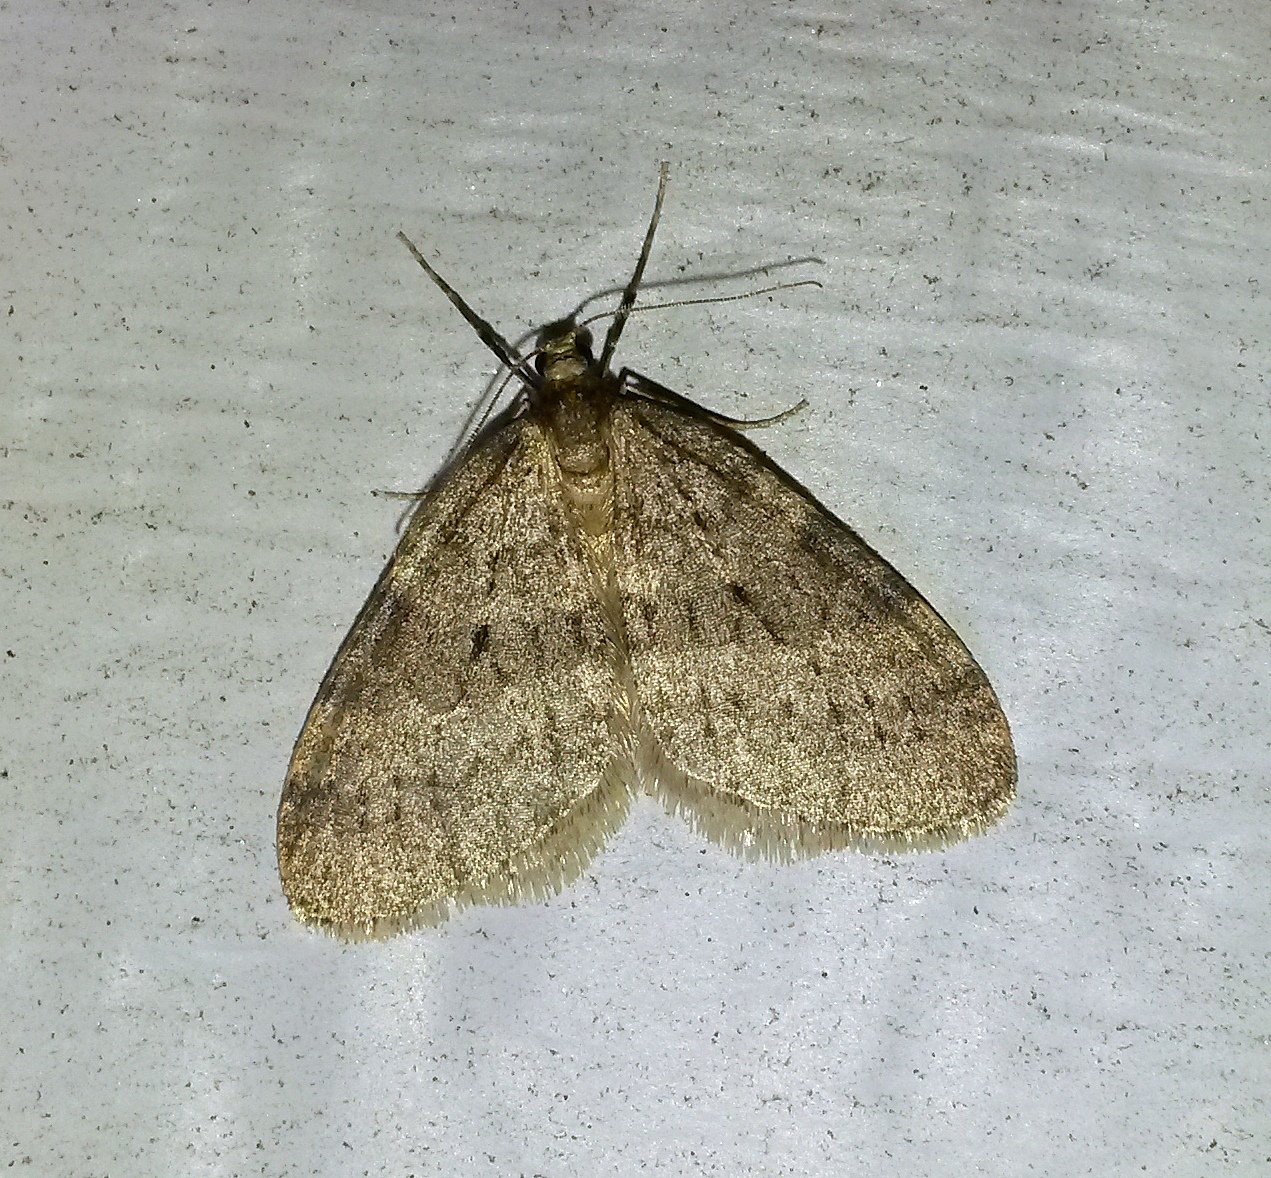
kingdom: Animalia
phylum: Arthropoda
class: Insecta
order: Lepidoptera
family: Geometridae
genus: Operophtera
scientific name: Operophtera brumata
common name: Winter moth
